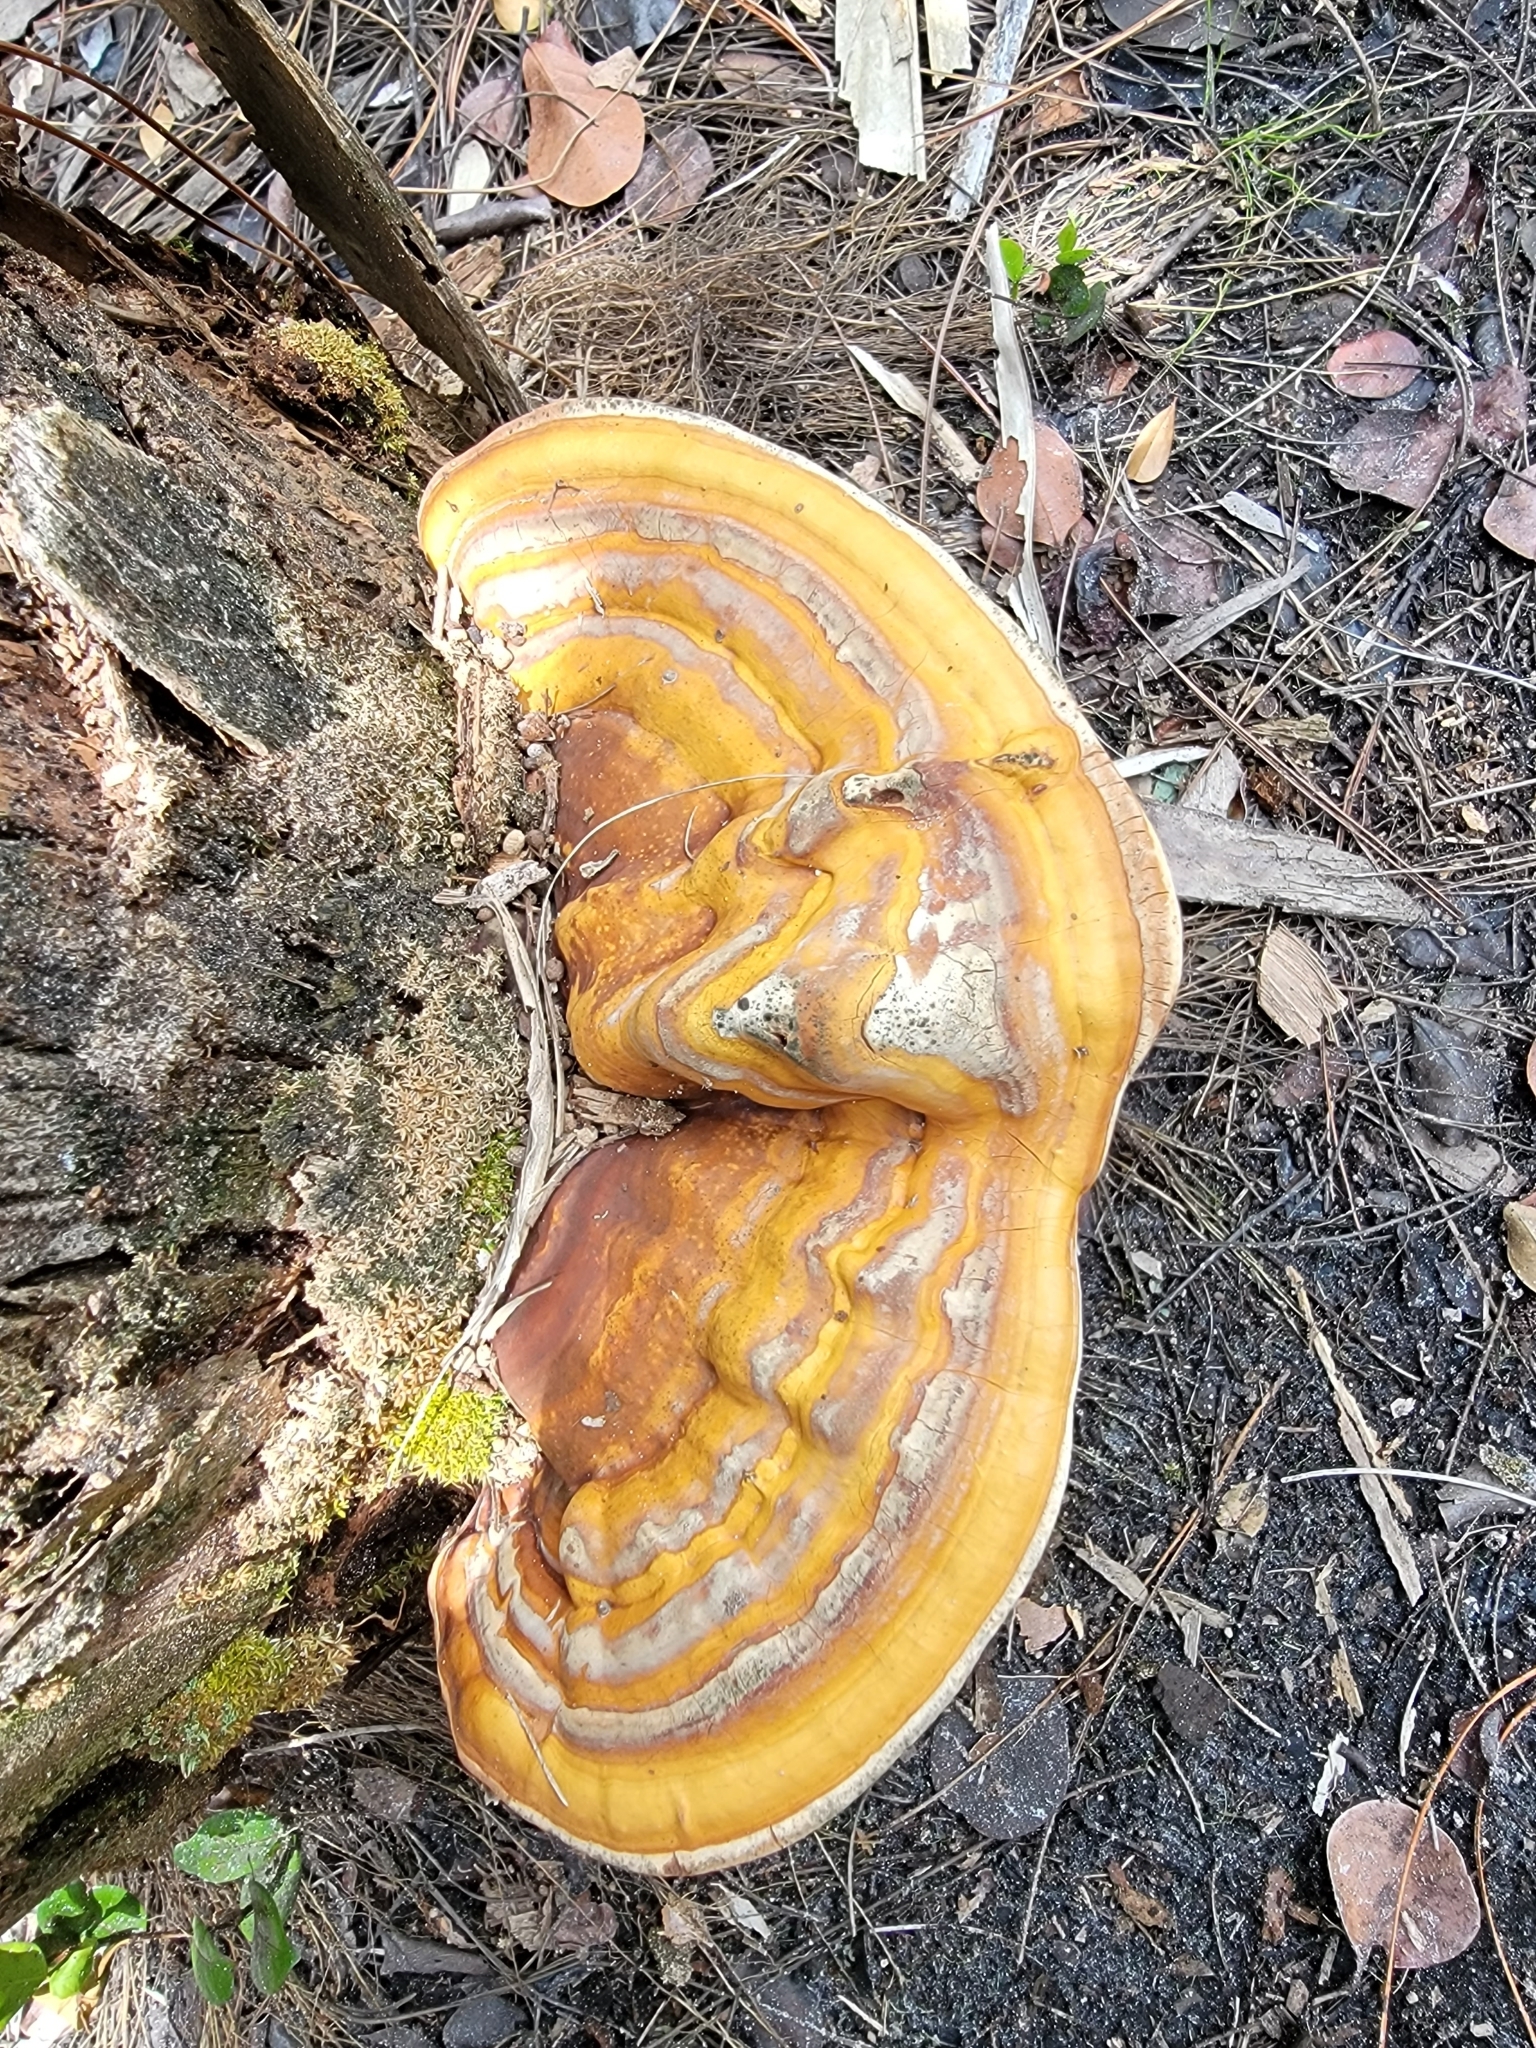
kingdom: Fungi
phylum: Basidiomycota
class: Agaricomycetes
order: Polyporales
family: Polyporaceae
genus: Ganoderma
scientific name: Ganoderma zonatum
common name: Ganoderma butt rot
